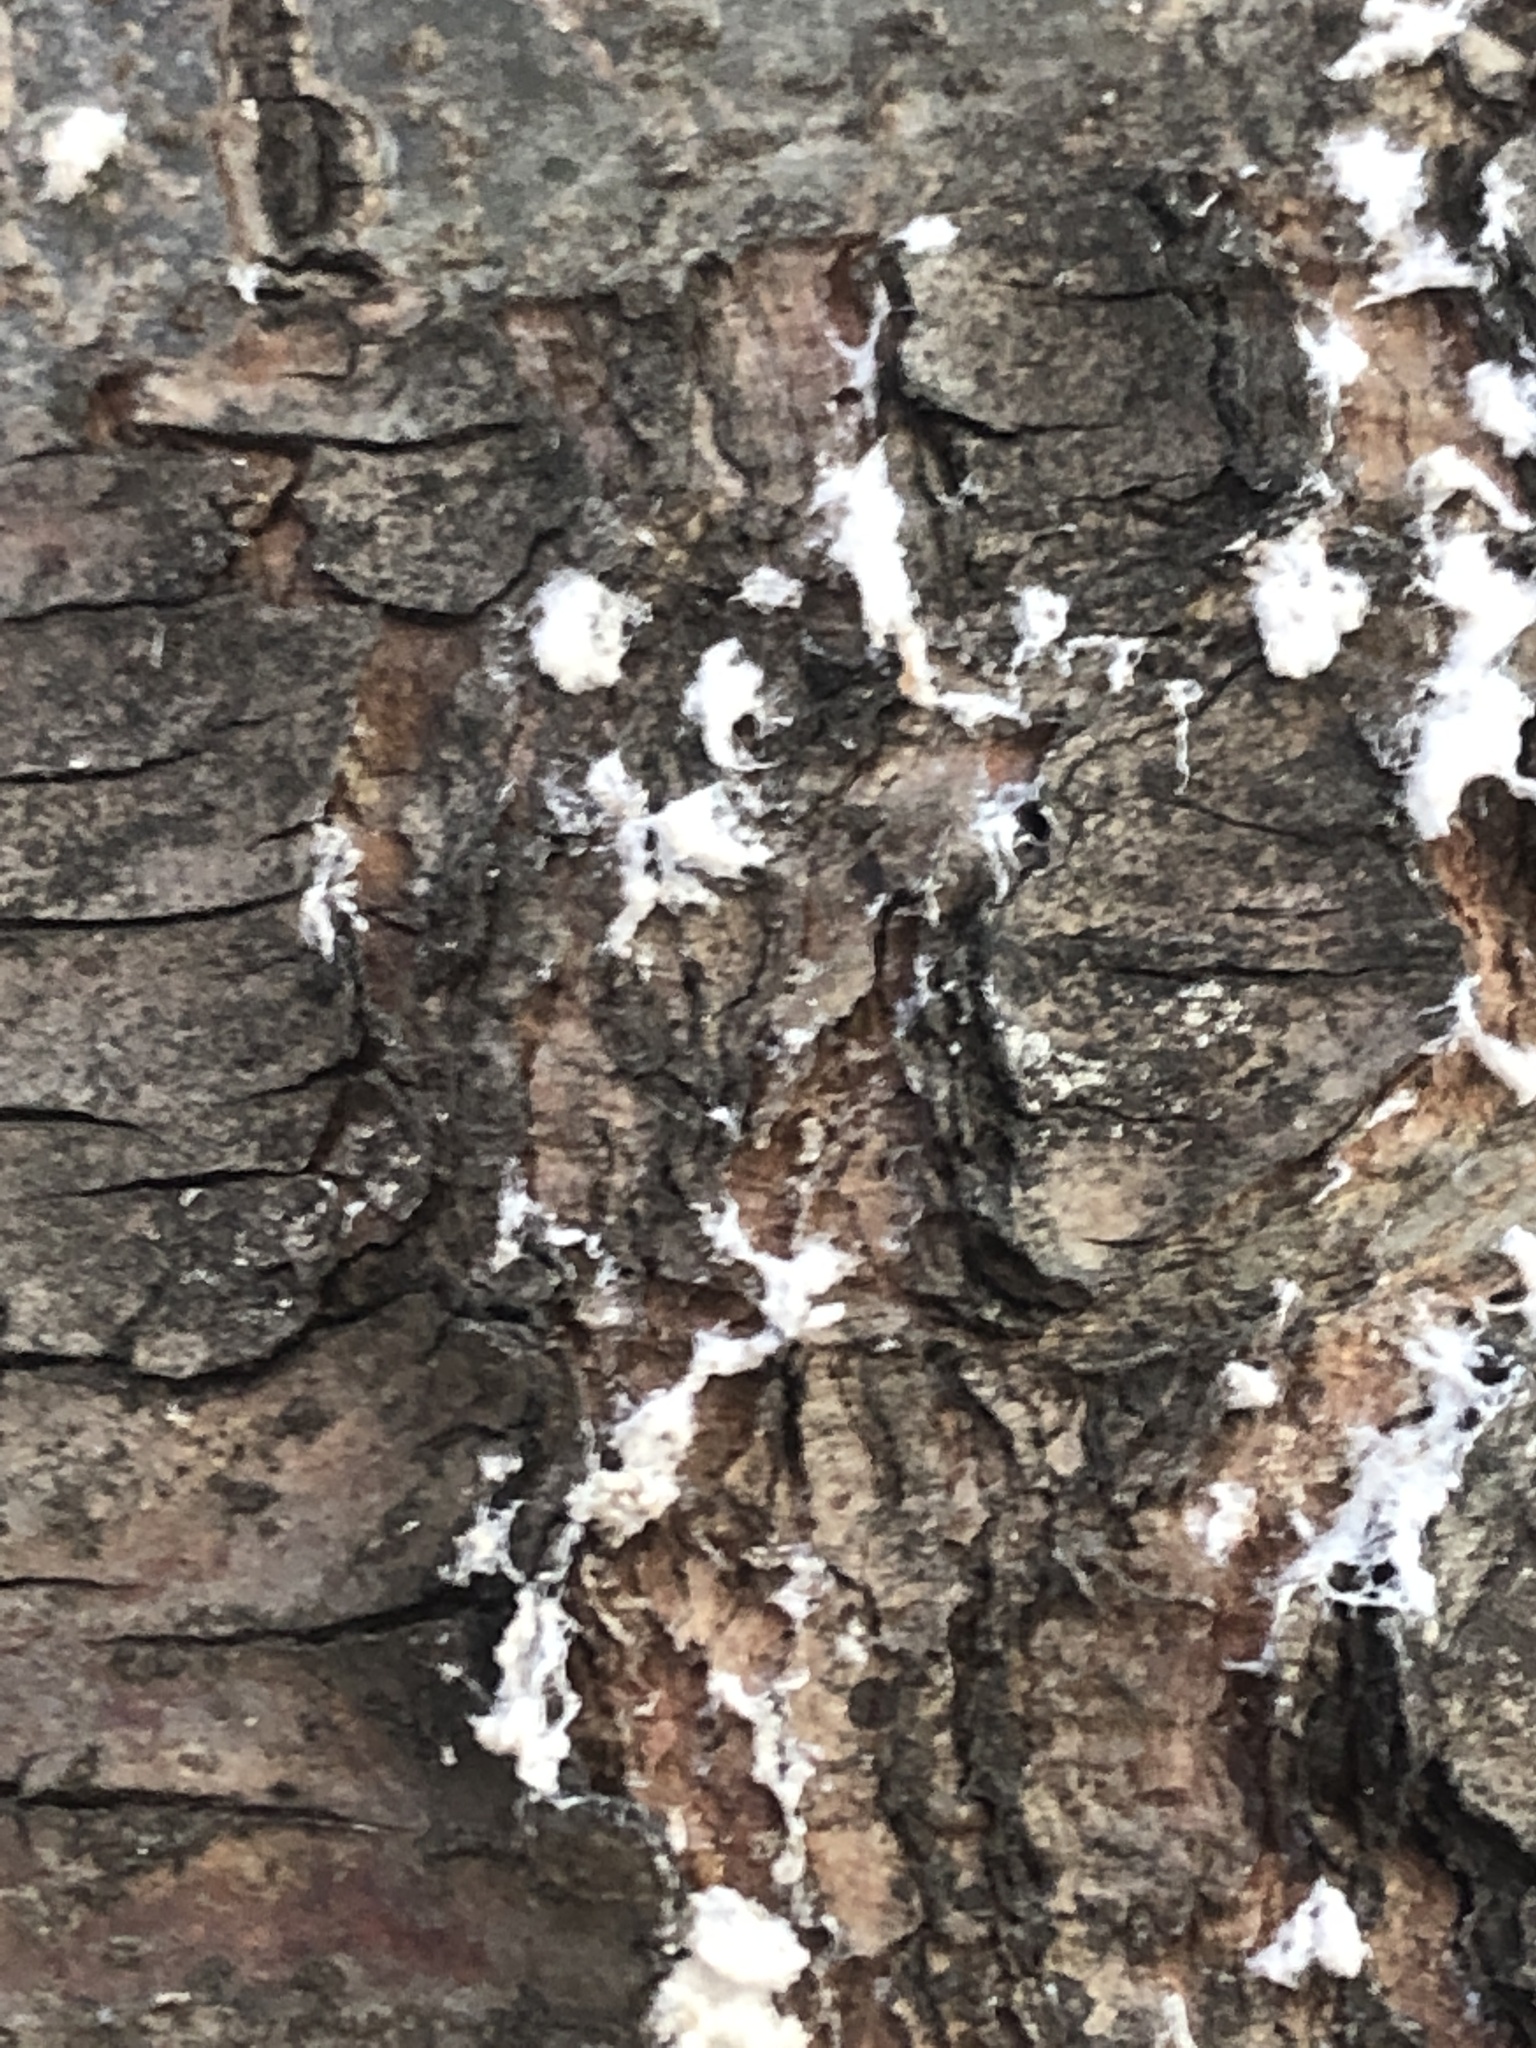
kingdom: Animalia
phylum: Arthropoda
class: Insecta
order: Hemiptera
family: Adelgidae
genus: Pineus
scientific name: Pineus strobi
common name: Pine bark adelgid
